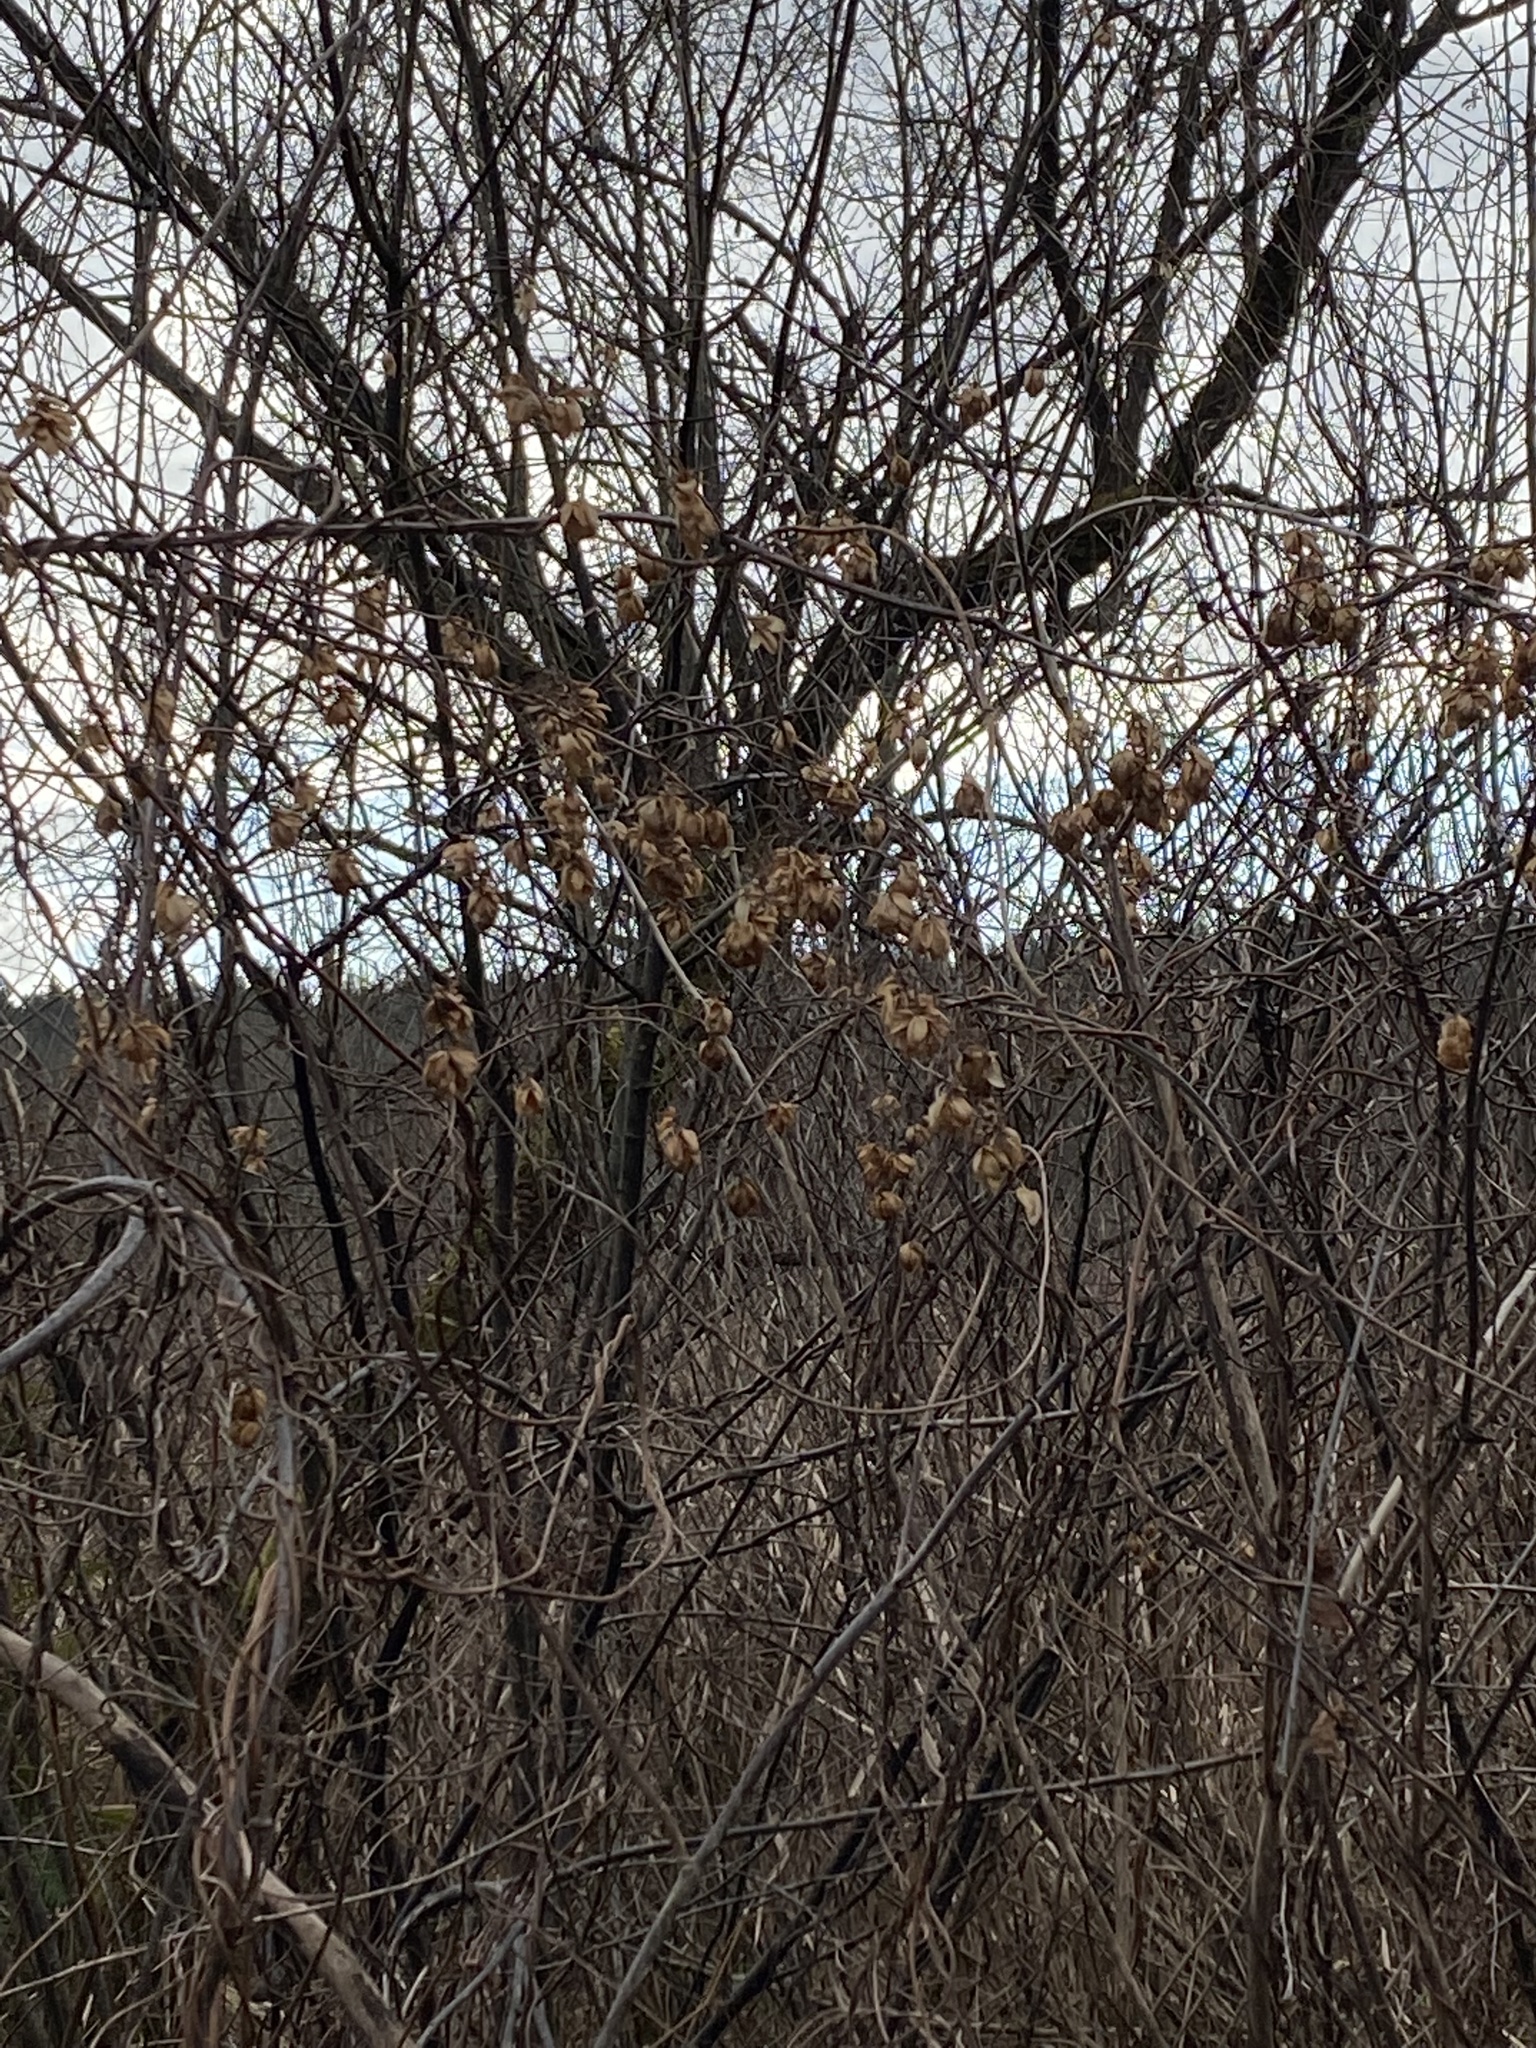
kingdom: Plantae
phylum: Tracheophyta
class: Magnoliopsida
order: Rosales
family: Cannabaceae
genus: Humulus
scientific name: Humulus lupulus
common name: Hop
